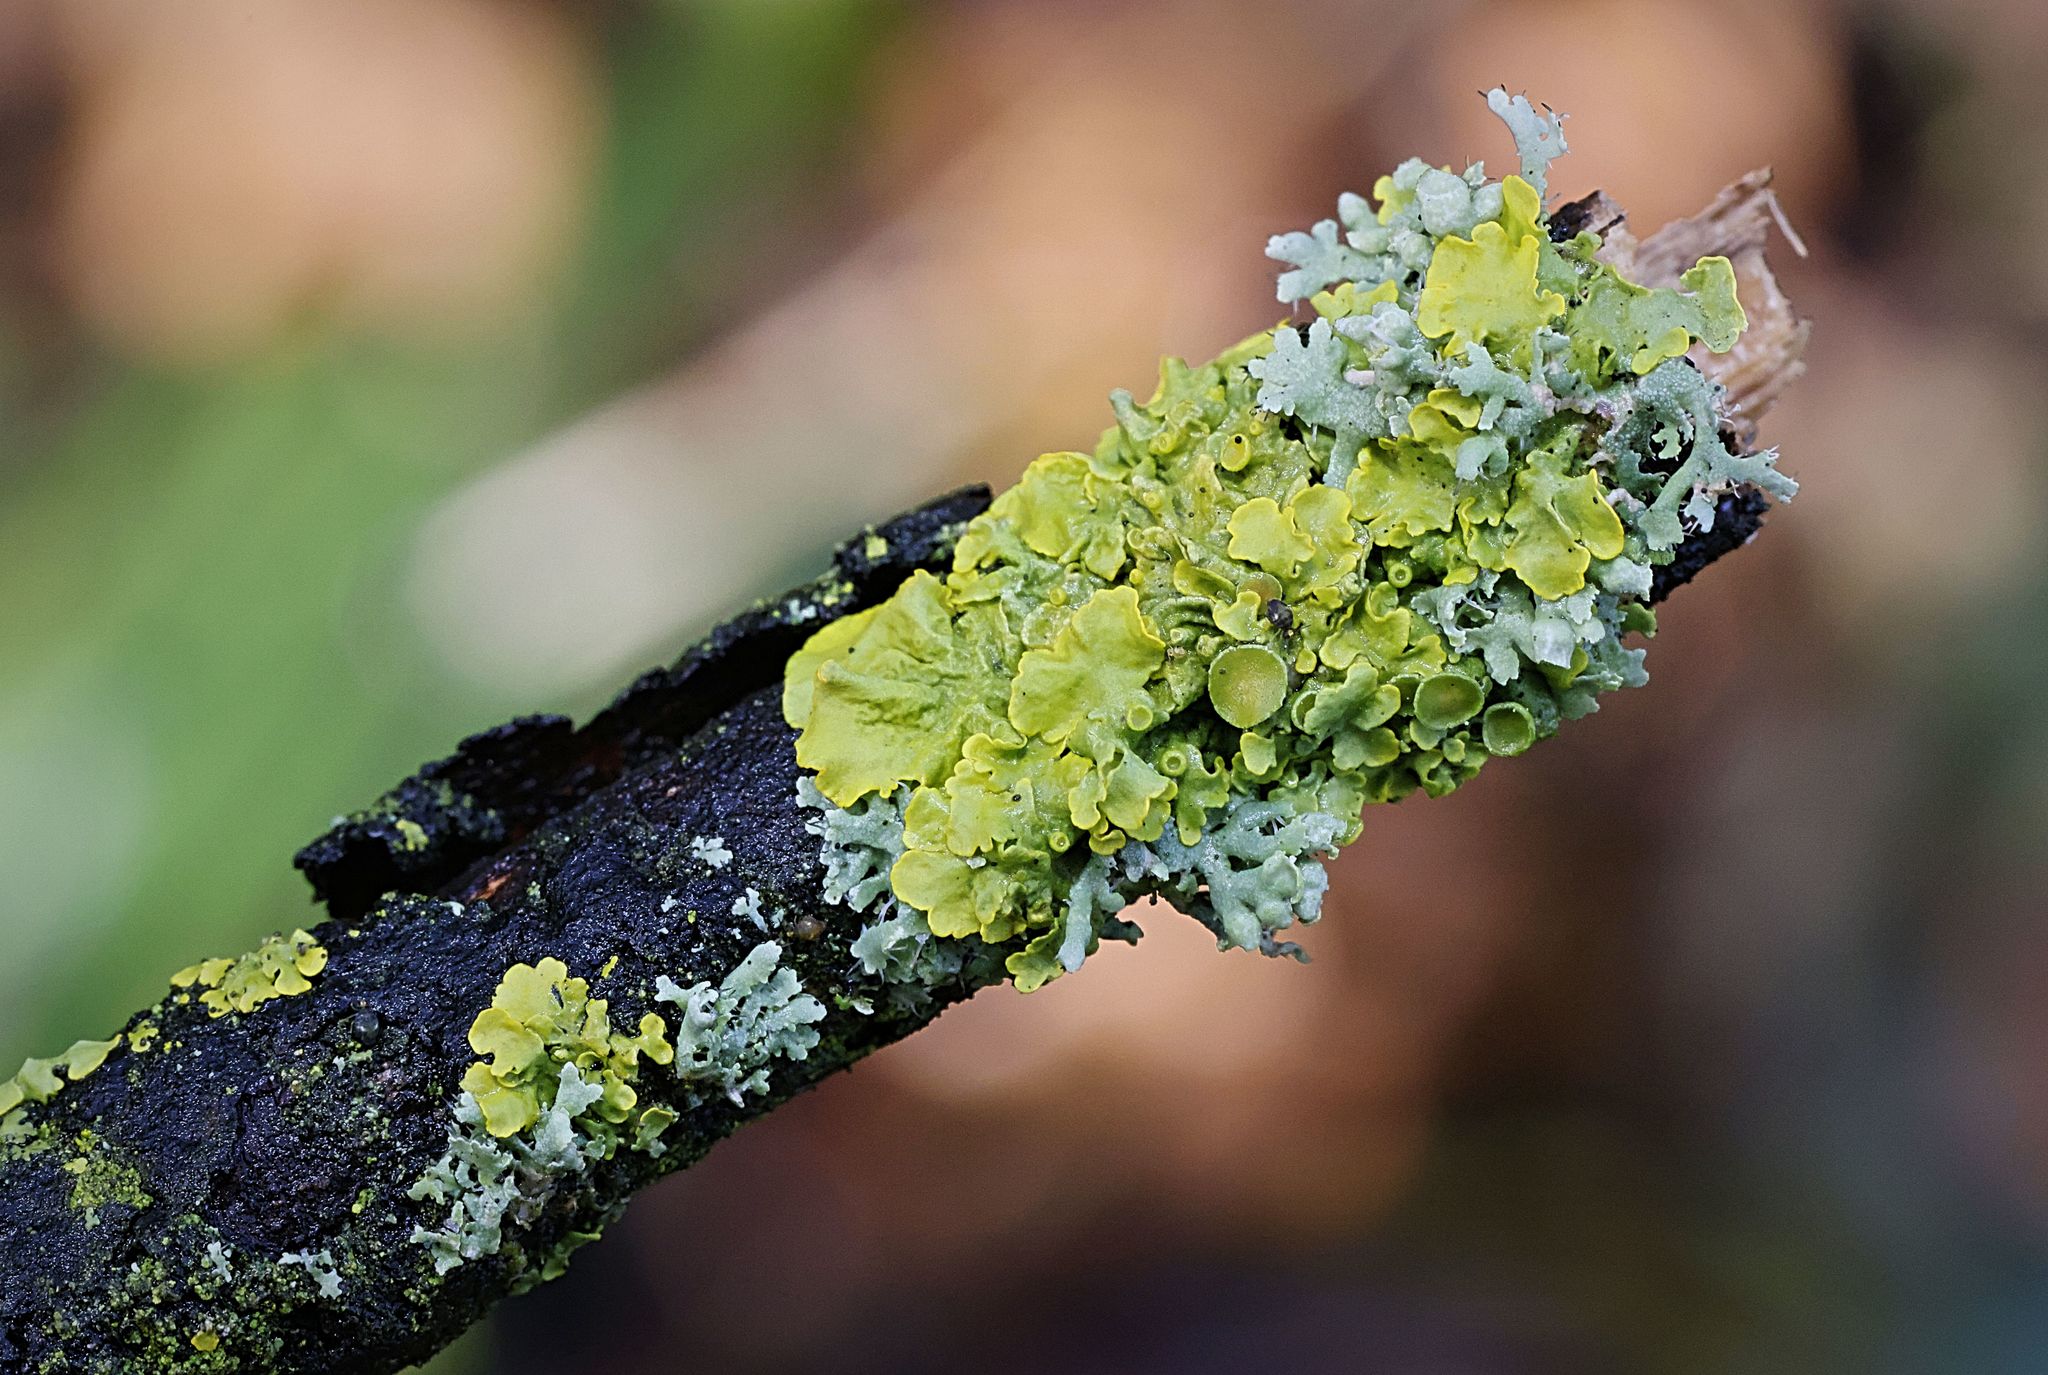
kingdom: Fungi
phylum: Ascomycota
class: Lecanoromycetes
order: Teloschistales
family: Teloschistaceae
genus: Xanthoria
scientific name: Xanthoria parietina
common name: Common orange lichen
